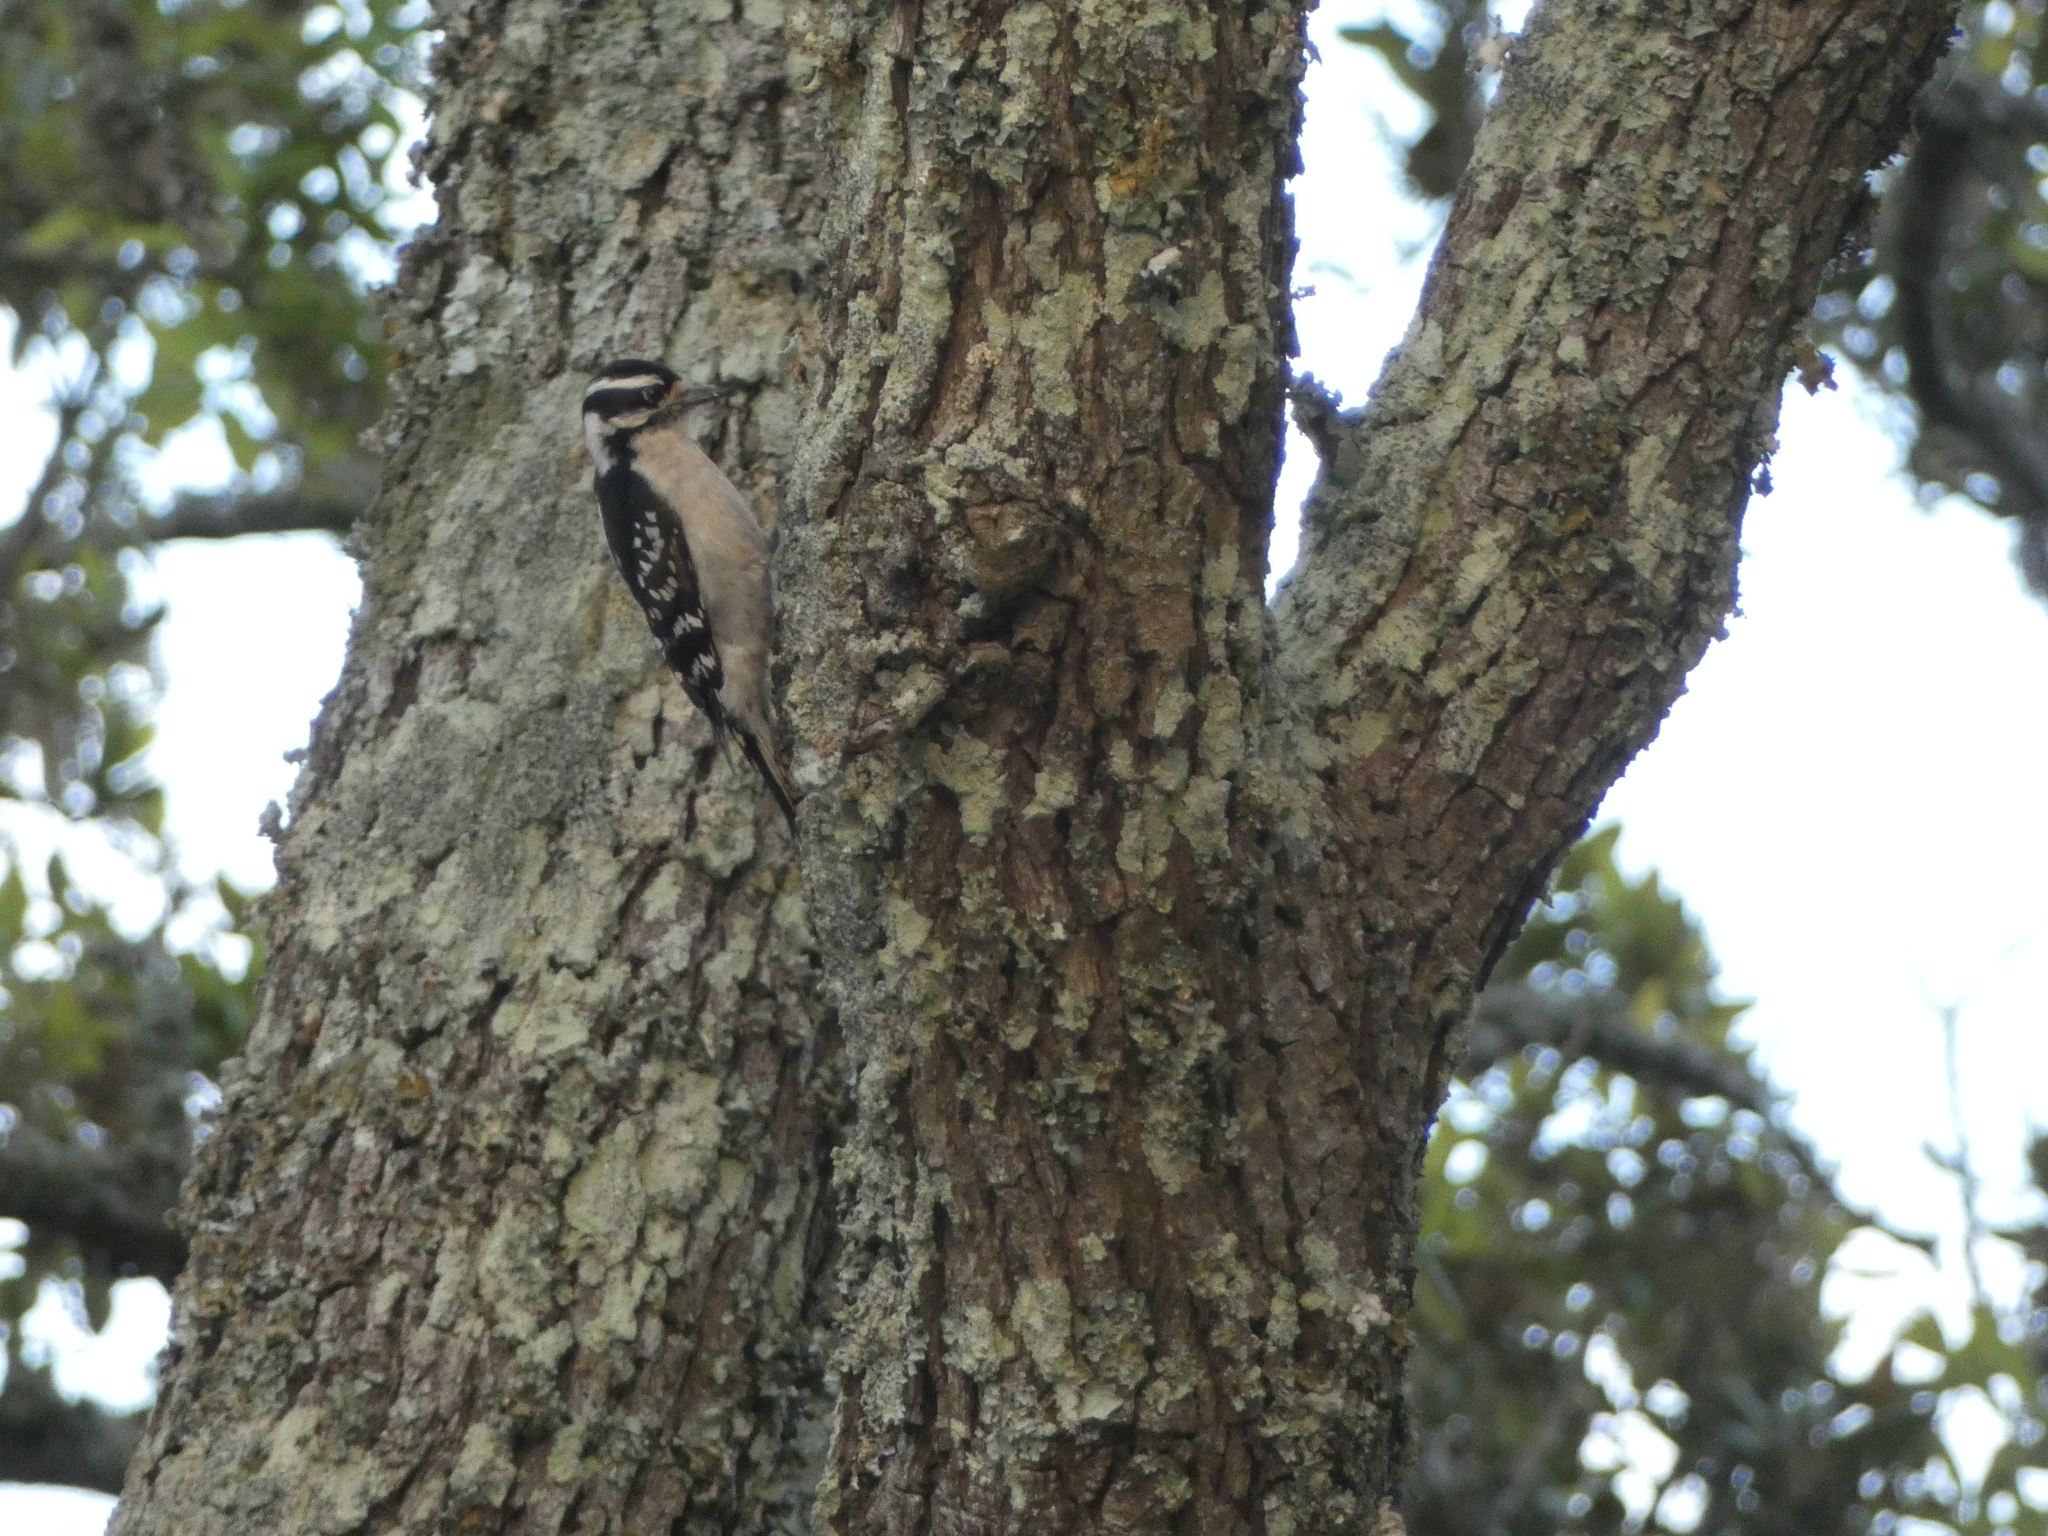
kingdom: Animalia
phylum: Chordata
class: Aves
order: Piciformes
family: Picidae
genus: Dryobates
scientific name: Dryobates pubescens
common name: Downy woodpecker
